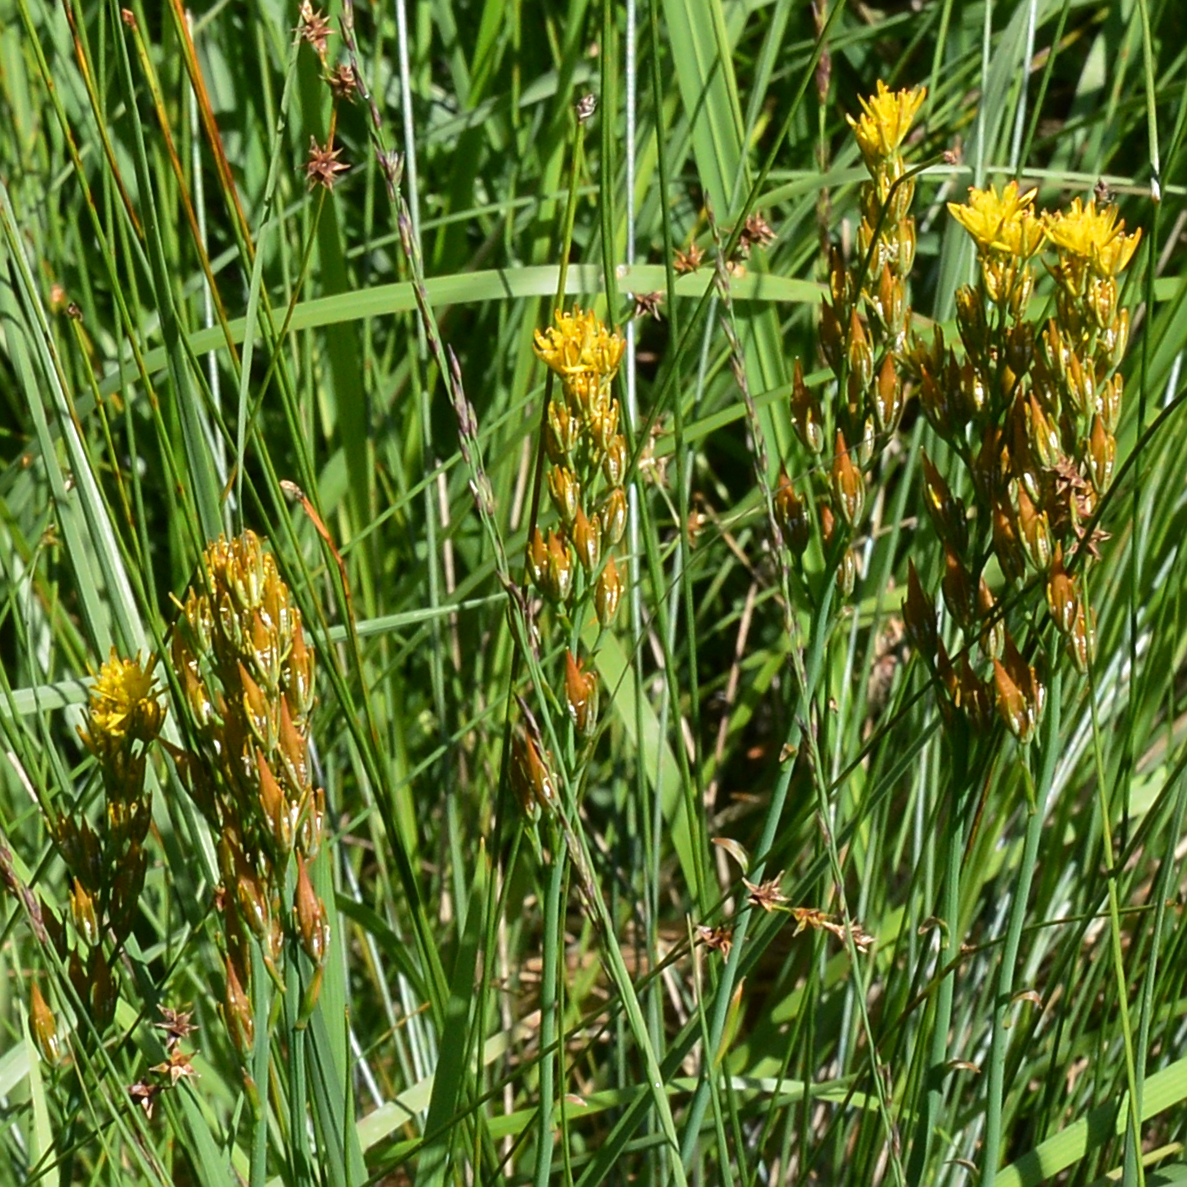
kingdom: Plantae
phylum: Tracheophyta
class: Liliopsida
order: Dioscoreales
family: Nartheciaceae
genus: Narthecium
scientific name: Narthecium ossifragum
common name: Bog asphodel
